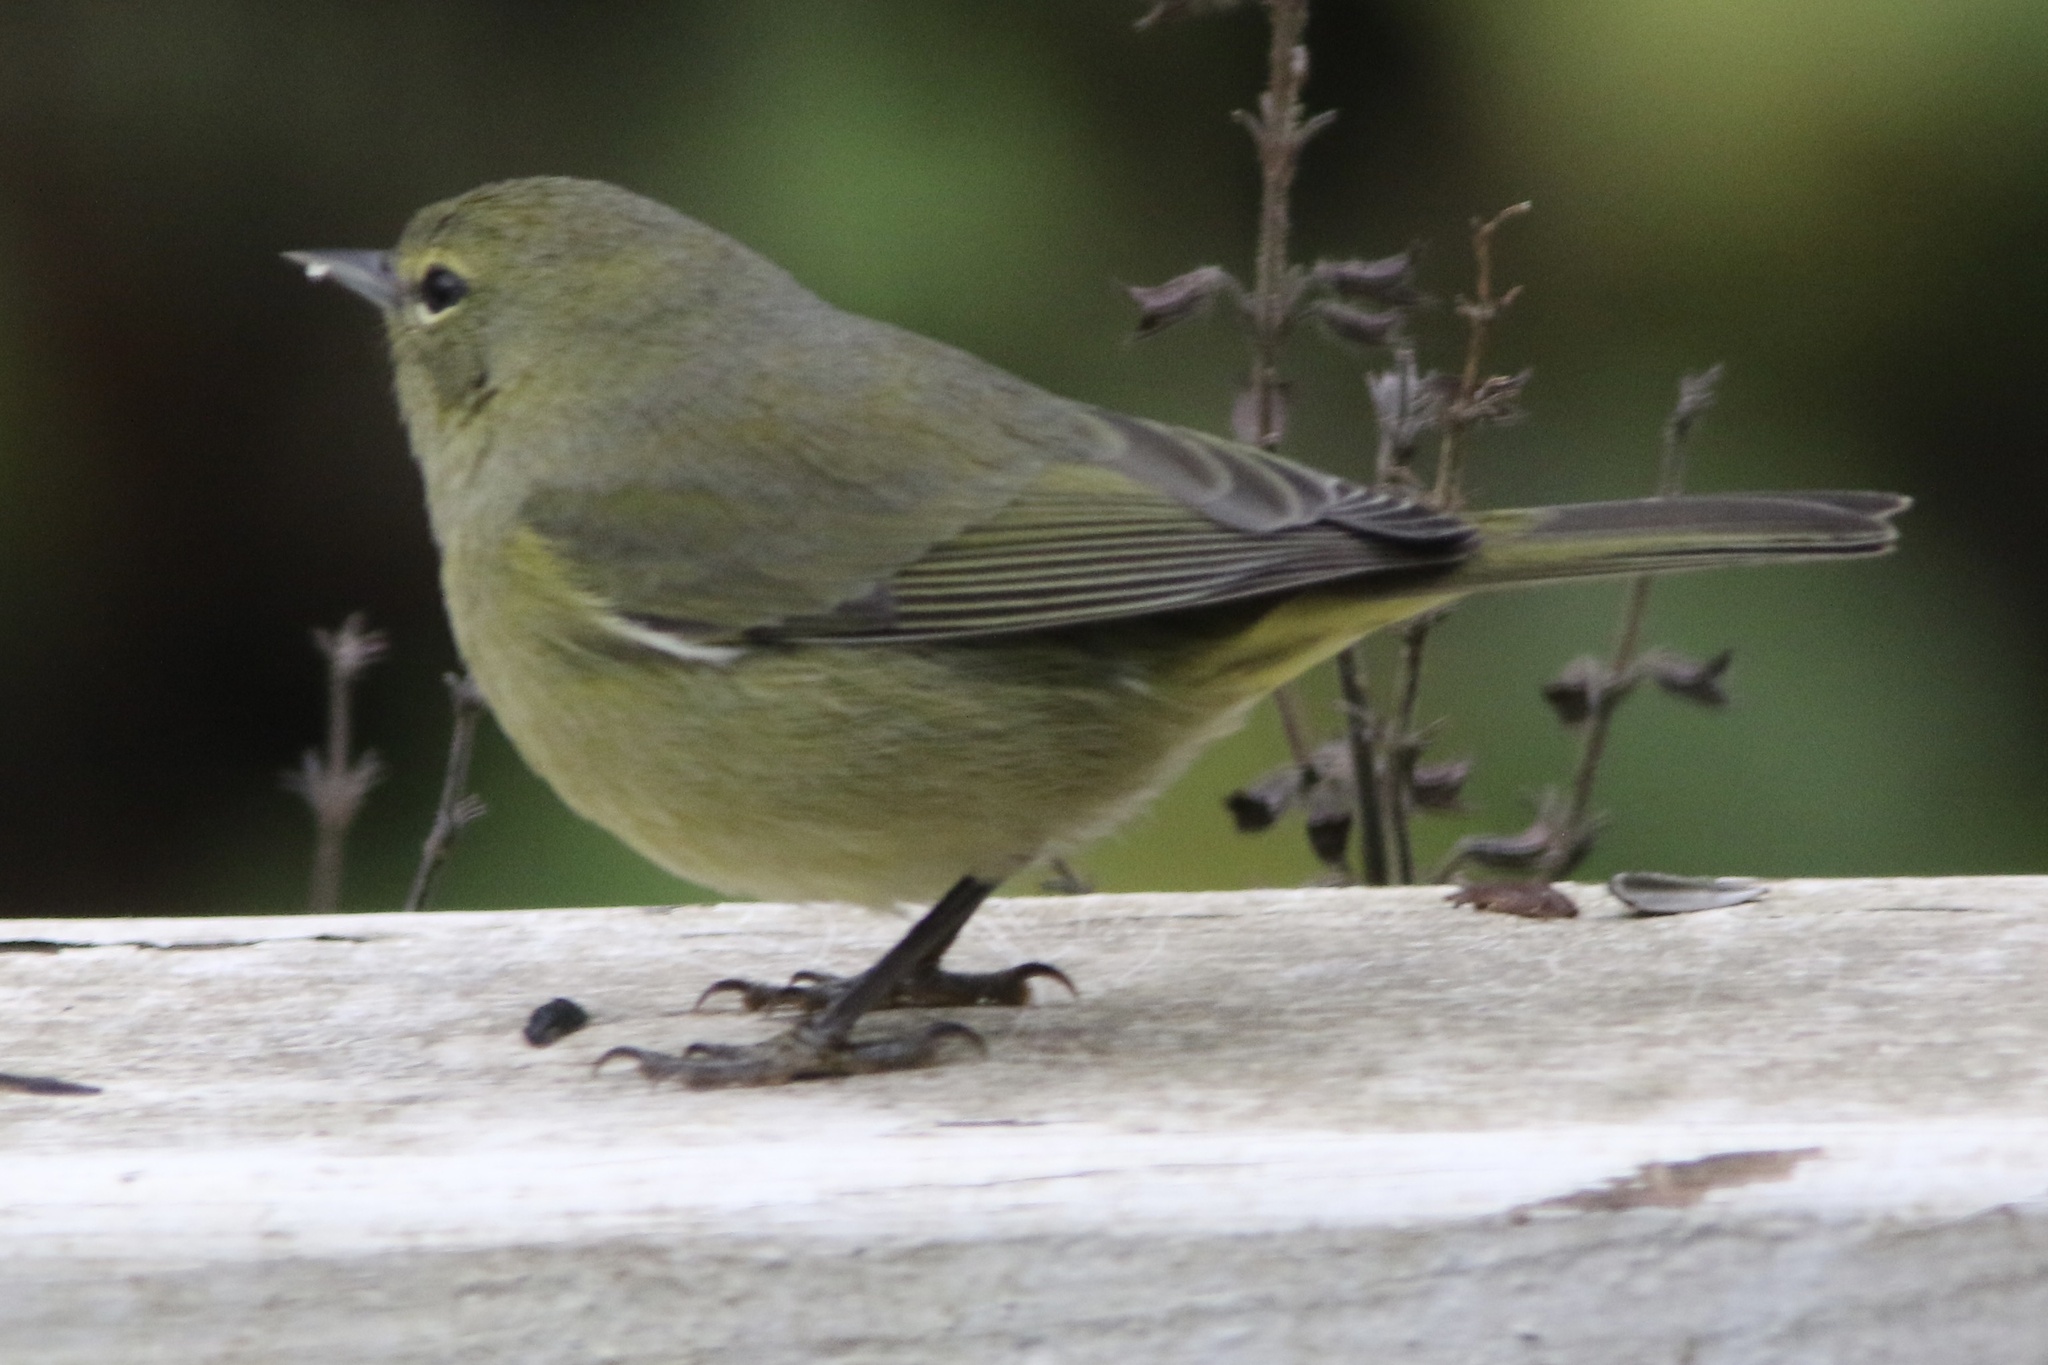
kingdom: Animalia
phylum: Chordata
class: Aves
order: Passeriformes
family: Parulidae
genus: Leiothlypis
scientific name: Leiothlypis celata
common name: Orange-crowned warbler
